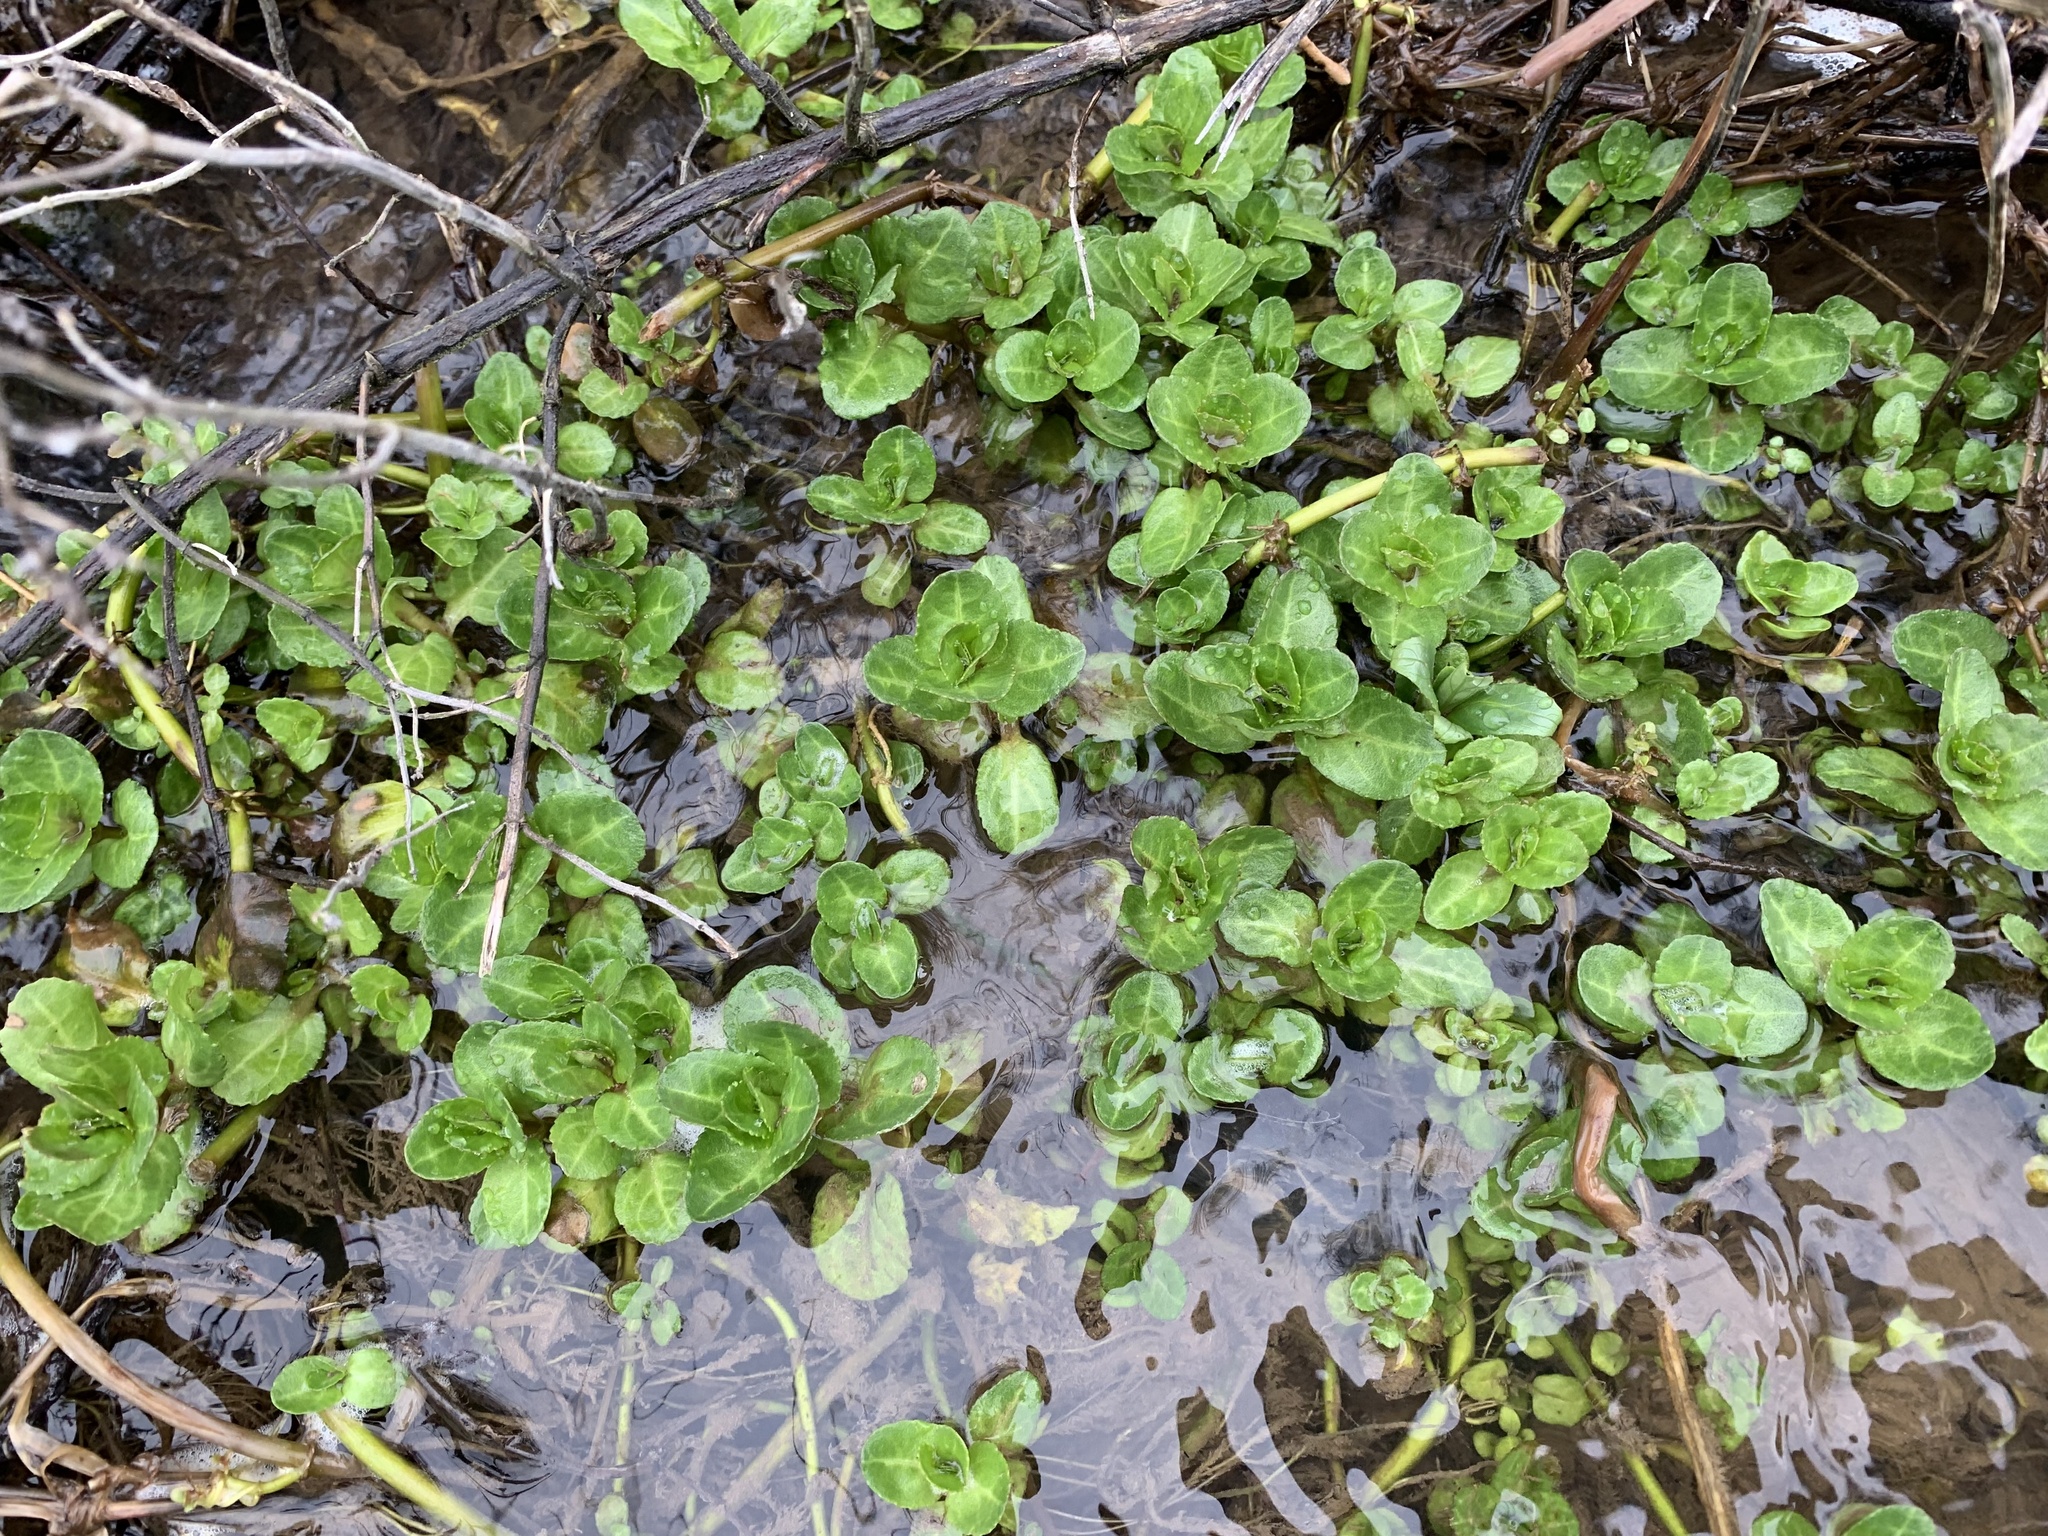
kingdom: Plantae
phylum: Tracheophyta
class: Magnoliopsida
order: Lamiales
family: Plantaginaceae
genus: Veronica
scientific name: Veronica beccabunga
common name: Brooklime
